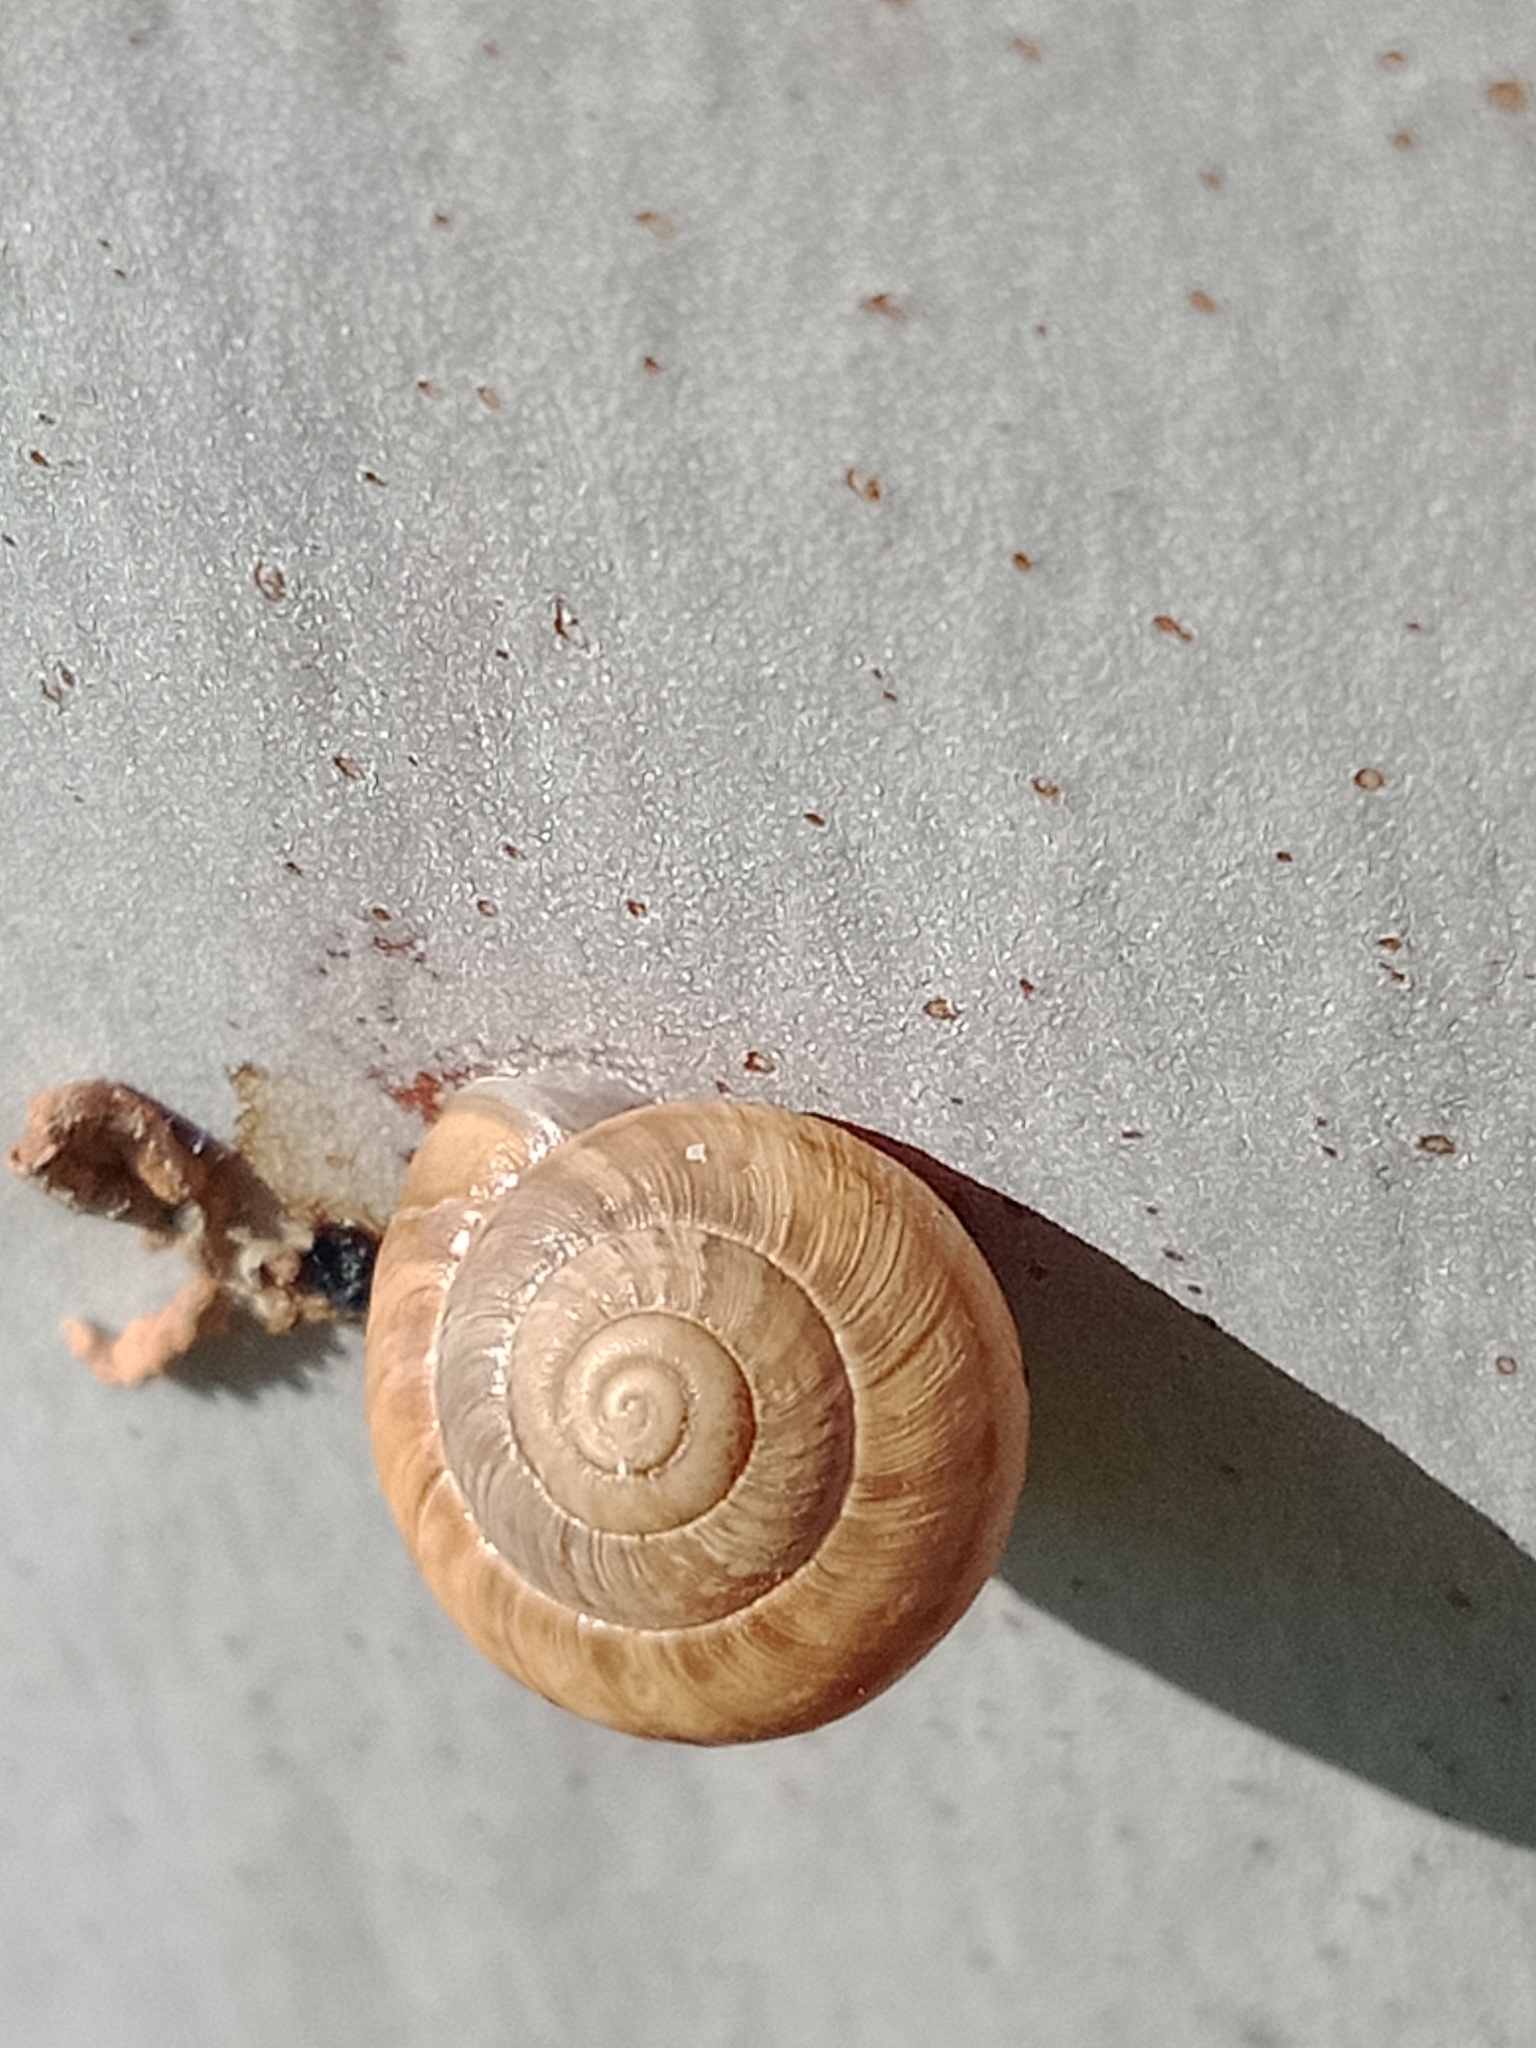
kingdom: Animalia
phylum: Mollusca
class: Gastropoda
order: Stylommatophora
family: Geomitridae
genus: Cernuella
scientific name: Cernuella virgata
